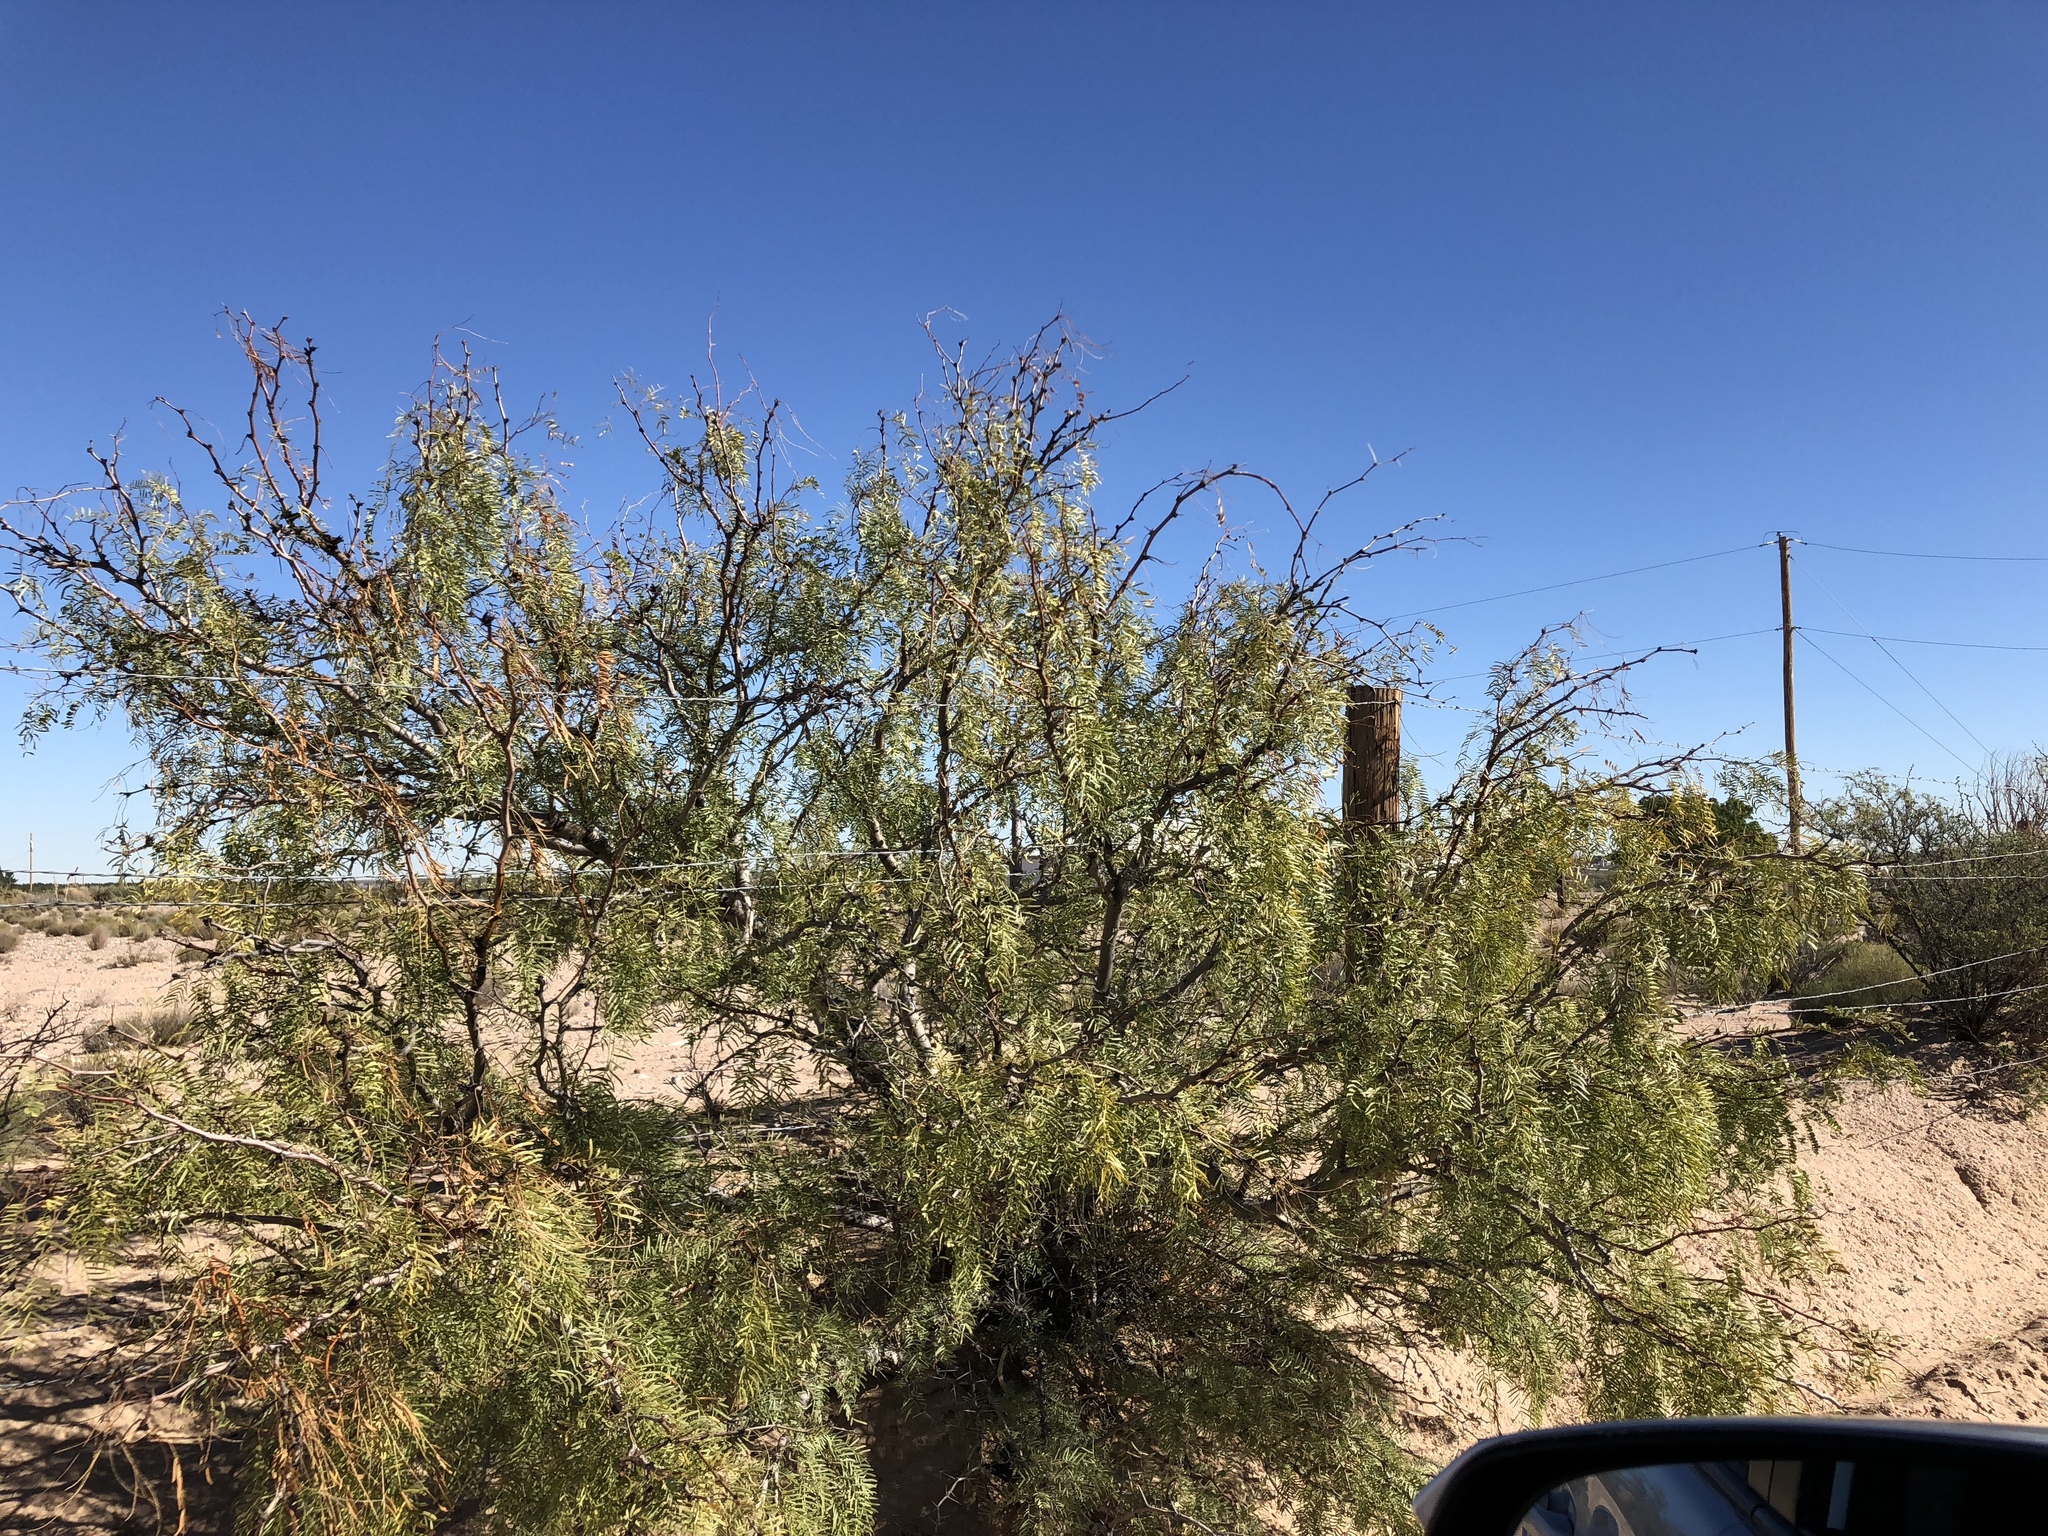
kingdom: Plantae
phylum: Tracheophyta
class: Magnoliopsida
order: Fabales
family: Fabaceae
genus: Prosopis
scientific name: Prosopis glandulosa
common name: Honey mesquite
